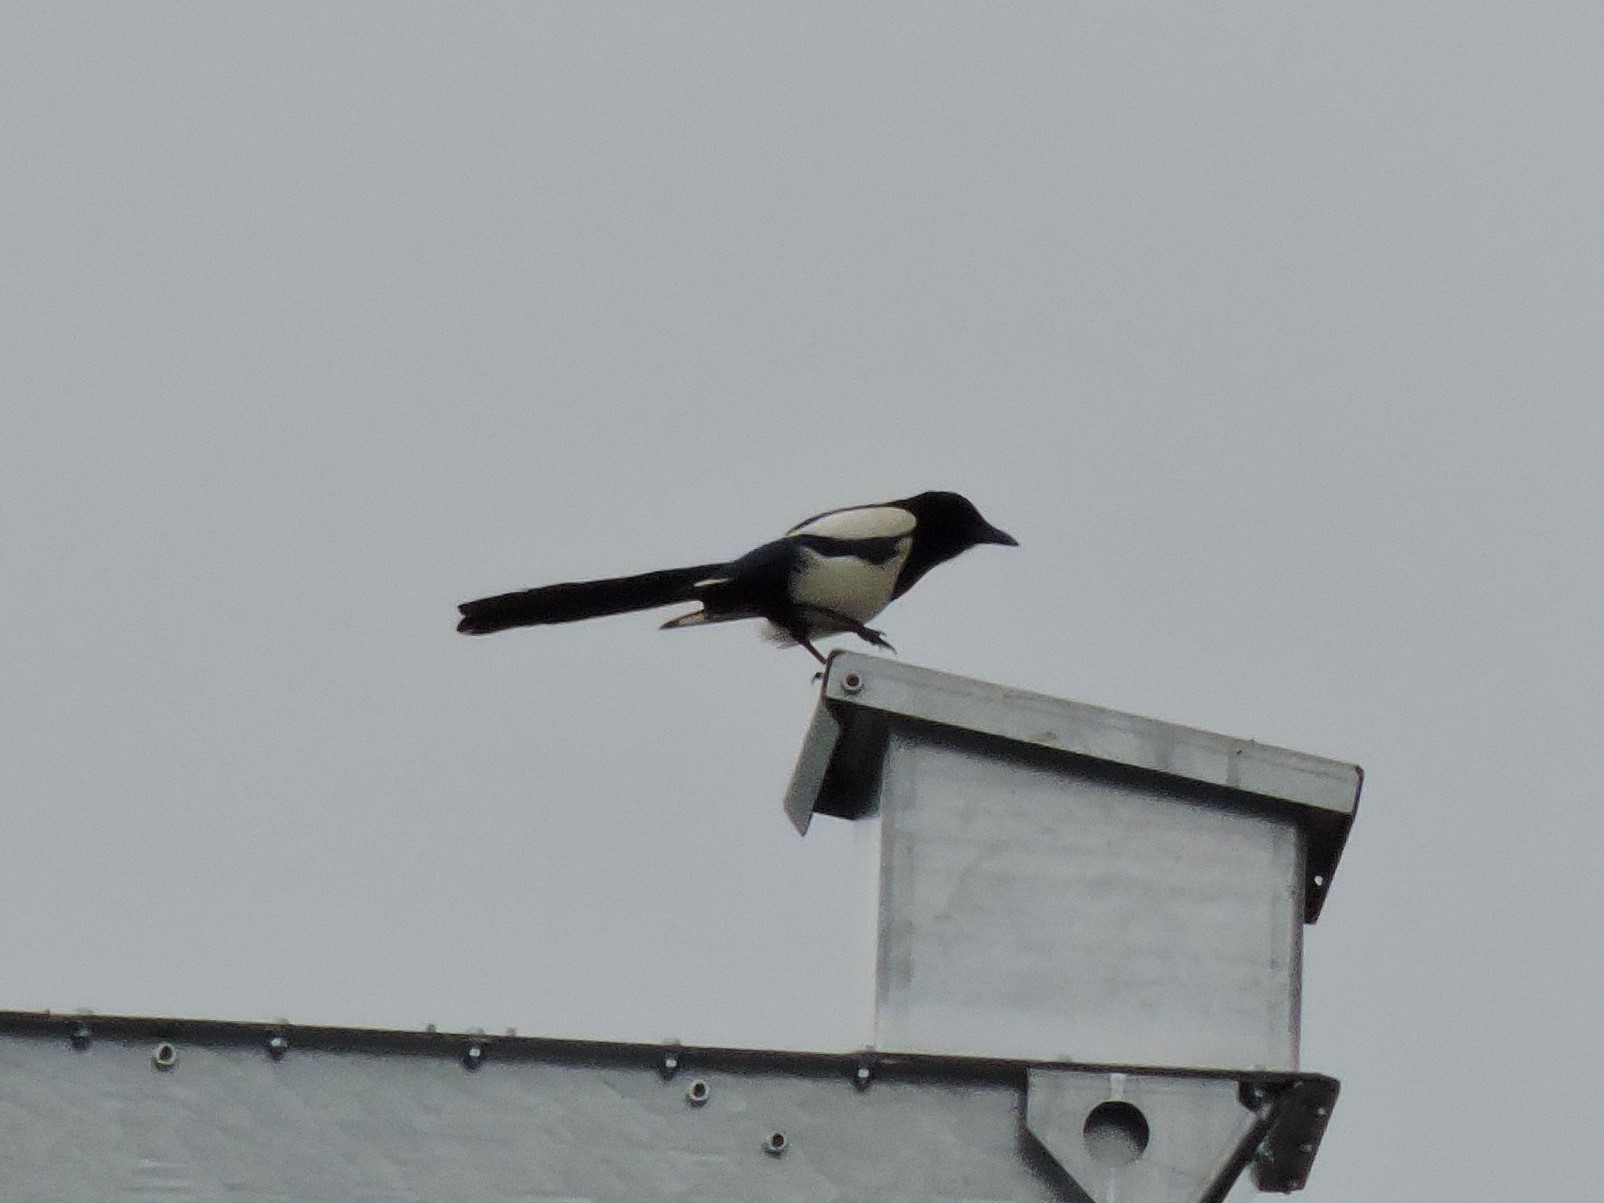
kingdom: Animalia
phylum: Chordata
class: Aves
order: Passeriformes
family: Corvidae
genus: Pica
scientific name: Pica pica
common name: Eurasian magpie
